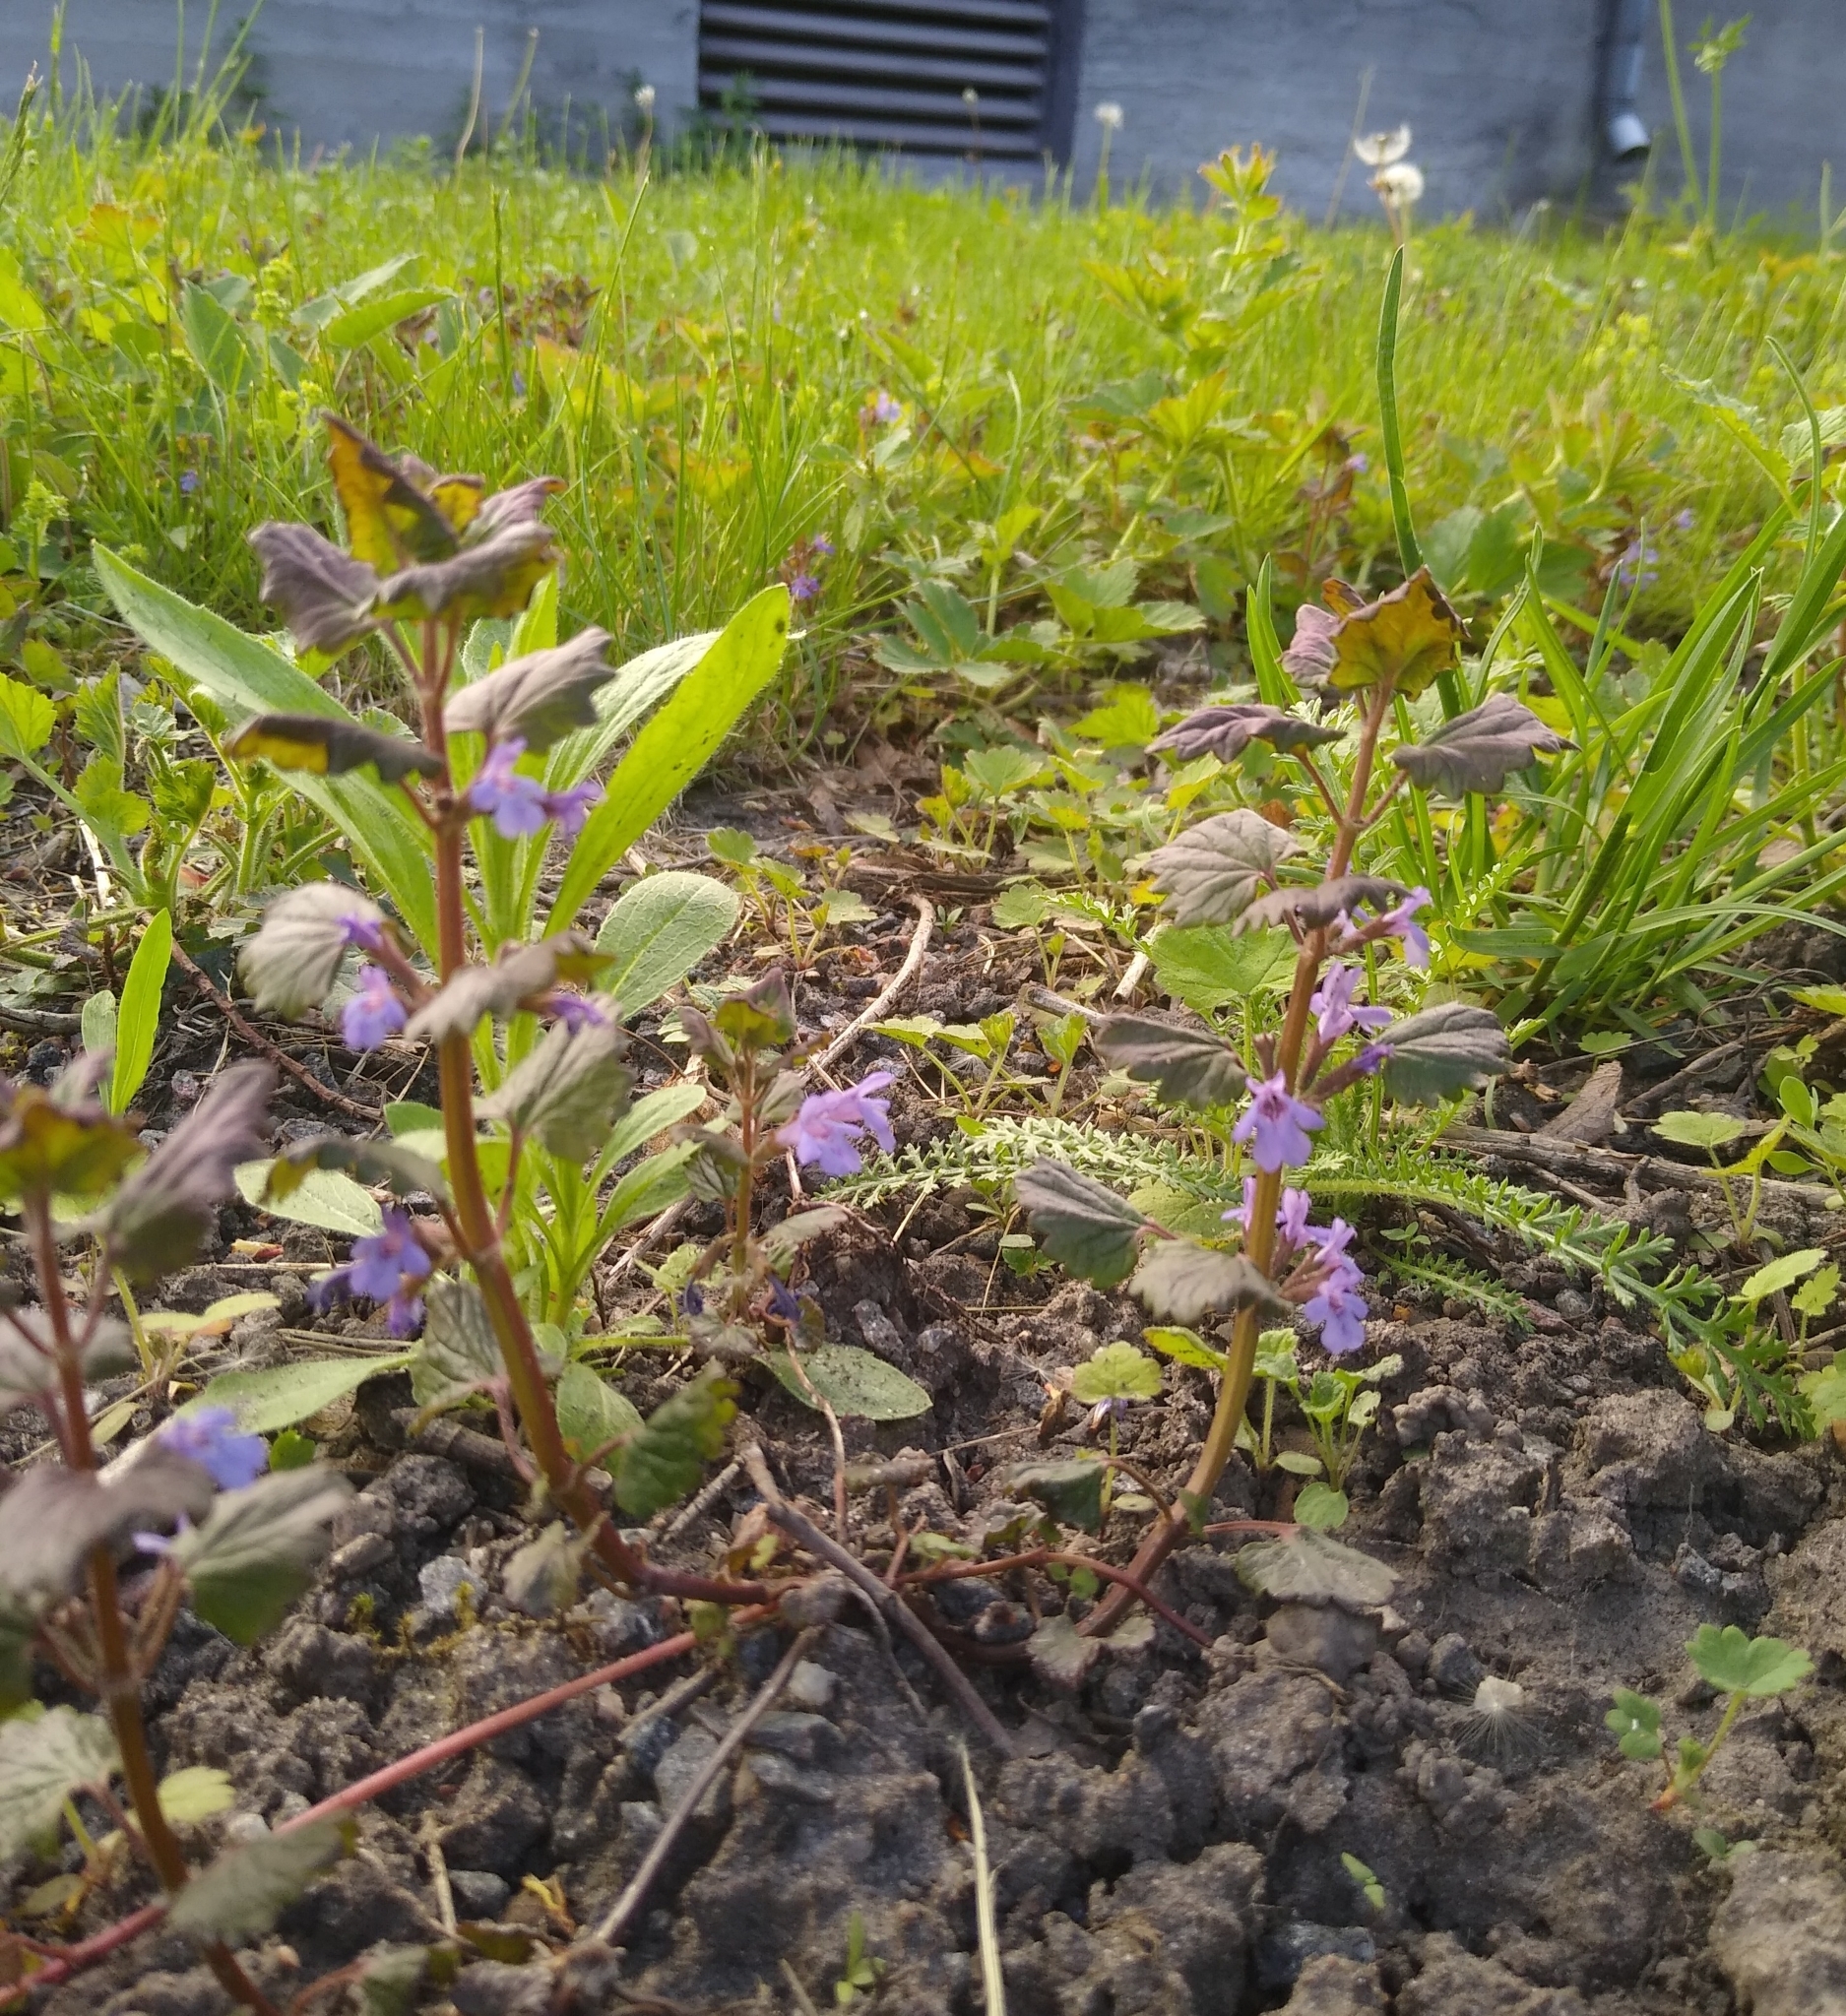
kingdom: Plantae
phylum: Tracheophyta
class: Magnoliopsida
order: Lamiales
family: Lamiaceae
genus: Glechoma
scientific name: Glechoma hederacea
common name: Ground ivy
